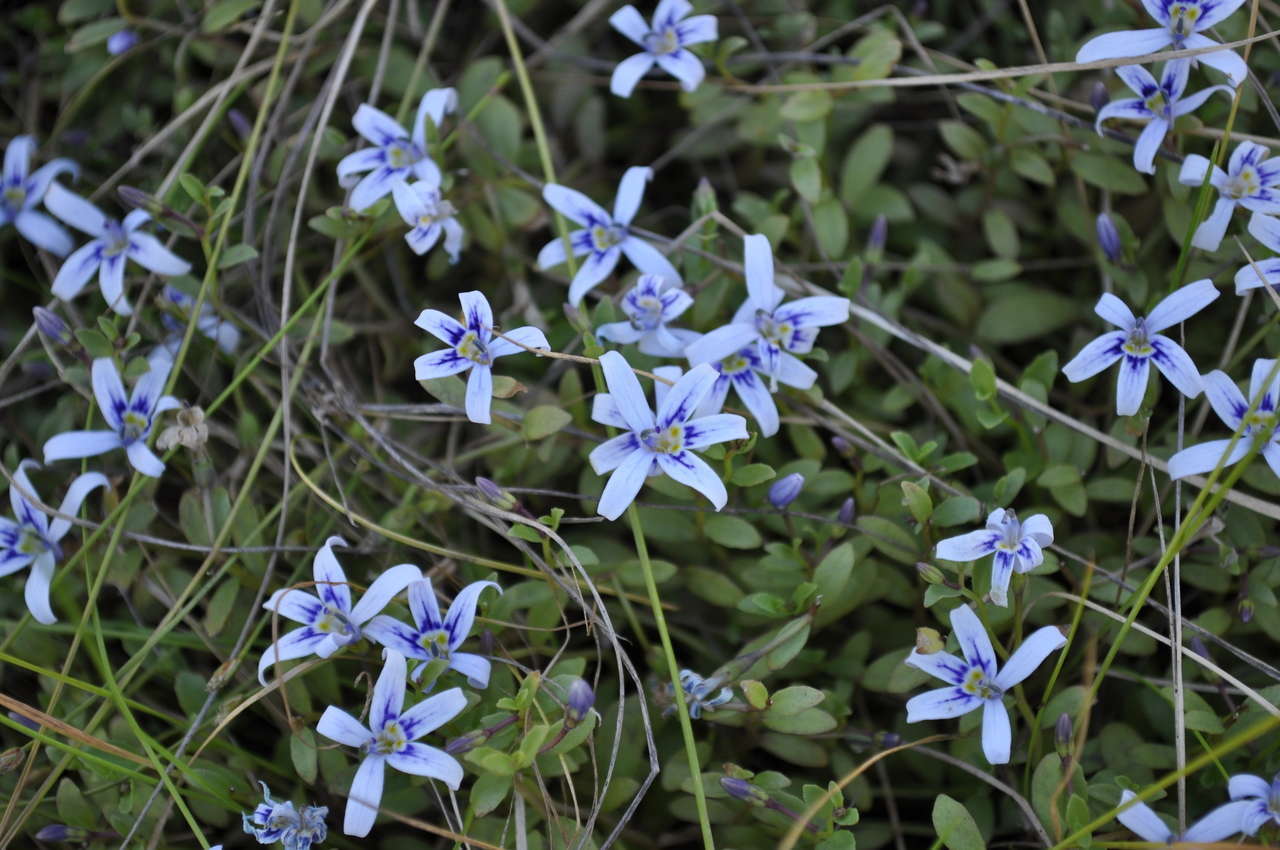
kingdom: Plantae
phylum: Tracheophyta
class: Magnoliopsida
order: Asterales
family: Campanulaceae
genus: Isotoma
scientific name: Isotoma fluviatilis
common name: Isotoma
